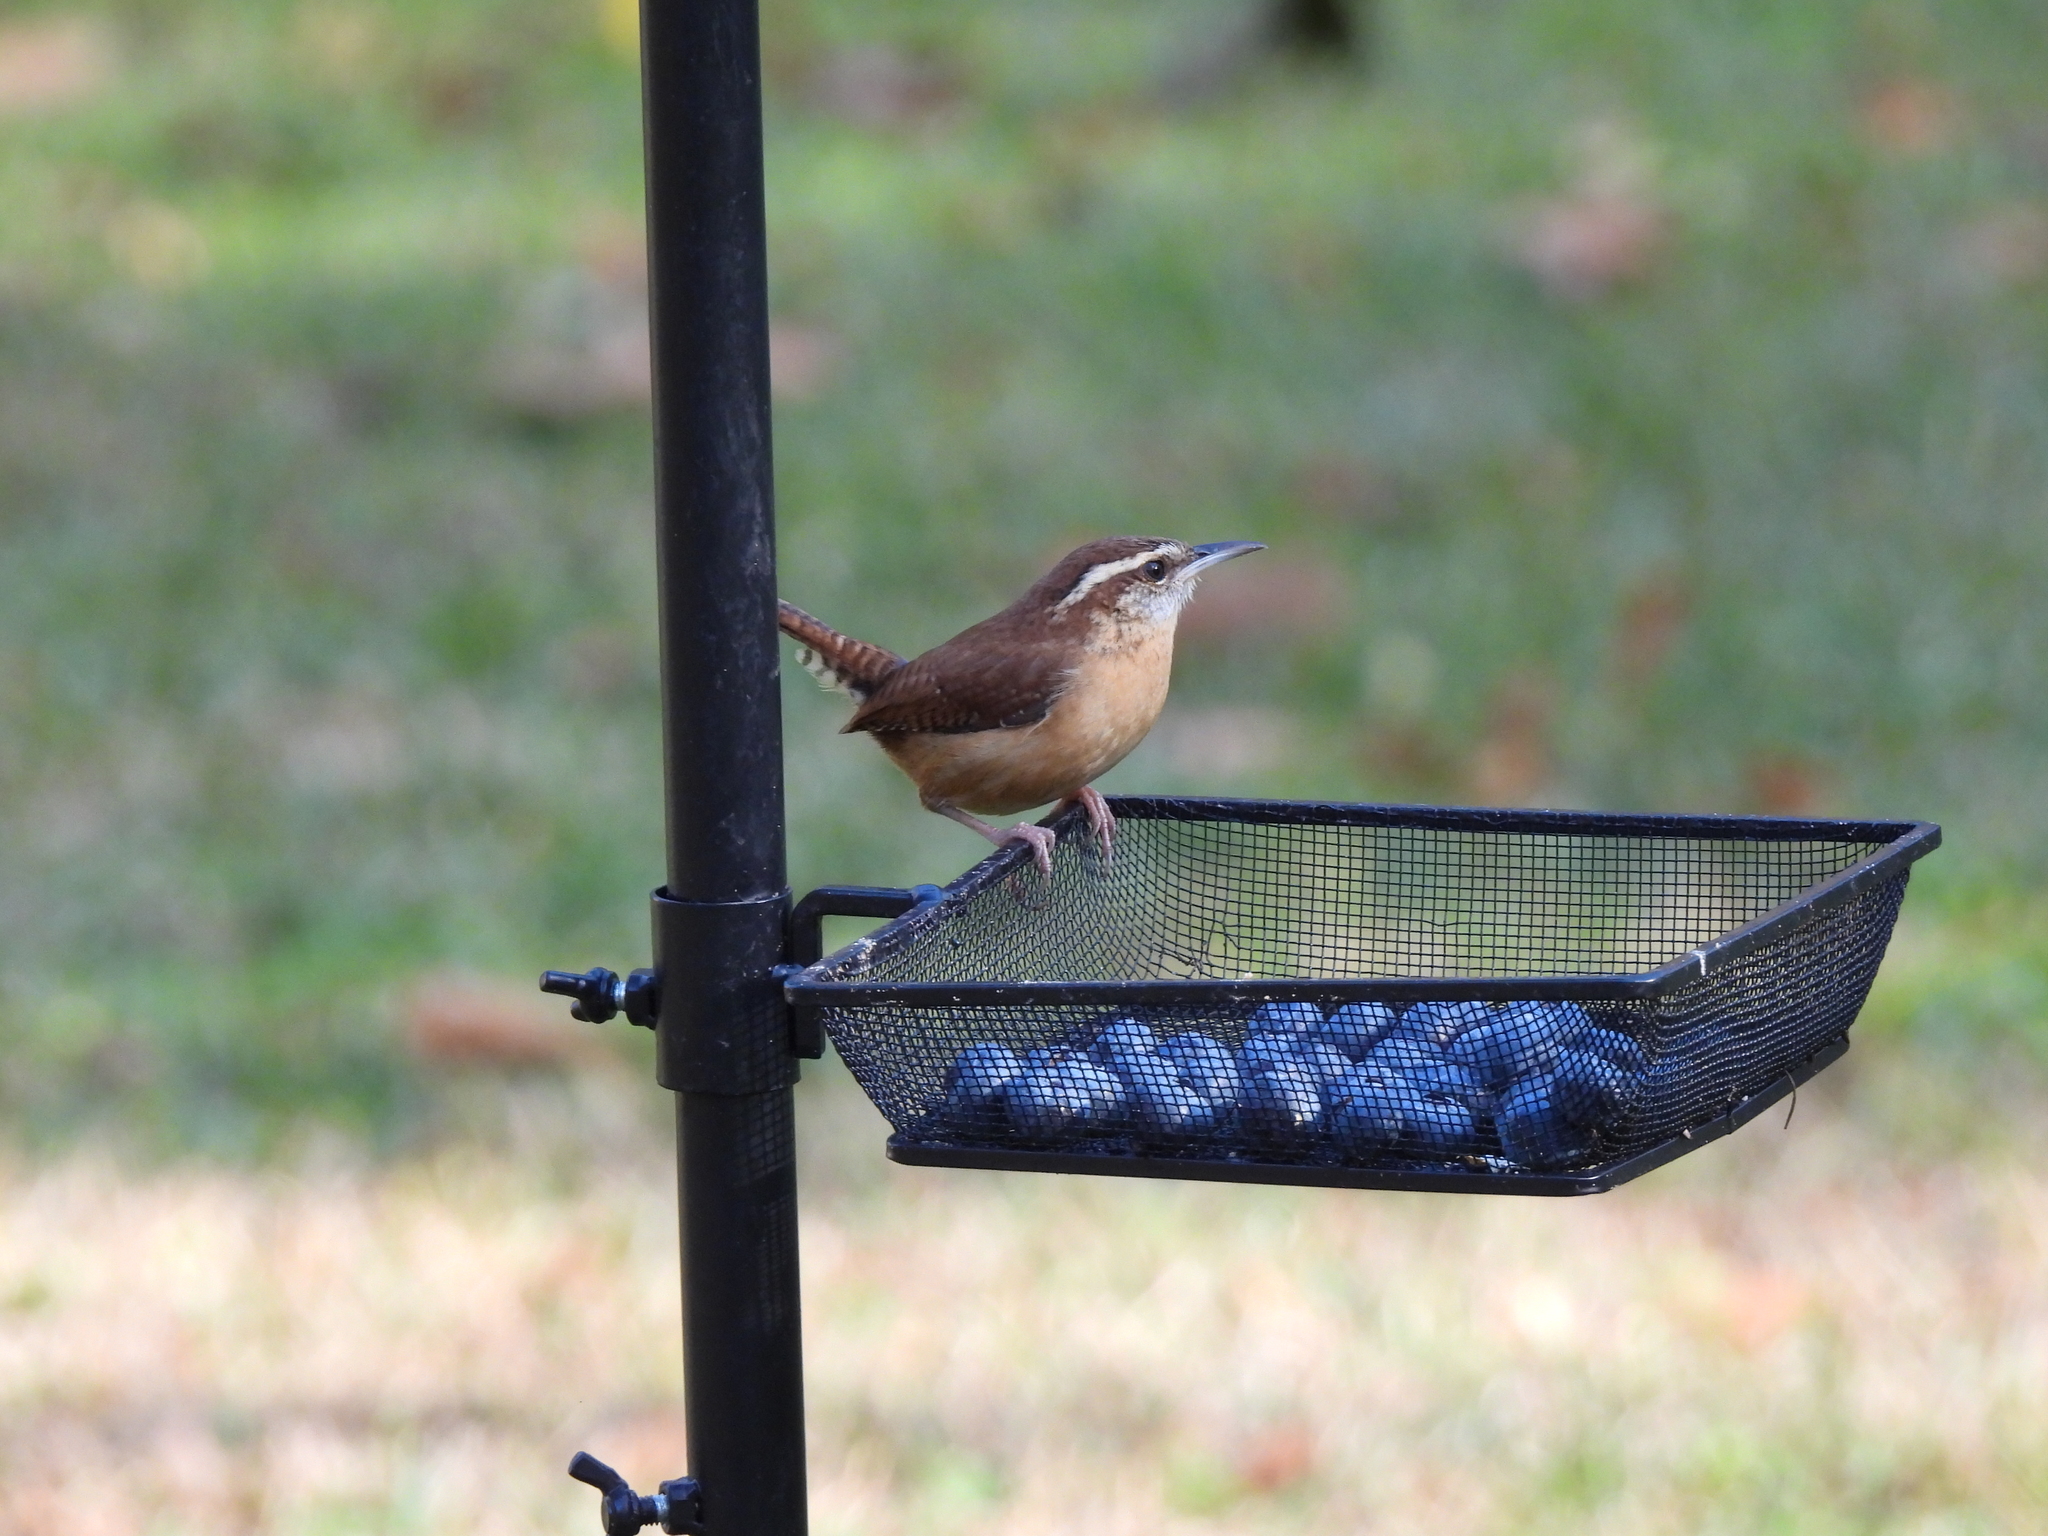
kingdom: Animalia
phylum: Chordata
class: Aves
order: Passeriformes
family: Troglodytidae
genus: Thryothorus
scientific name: Thryothorus ludovicianus
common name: Carolina wren
